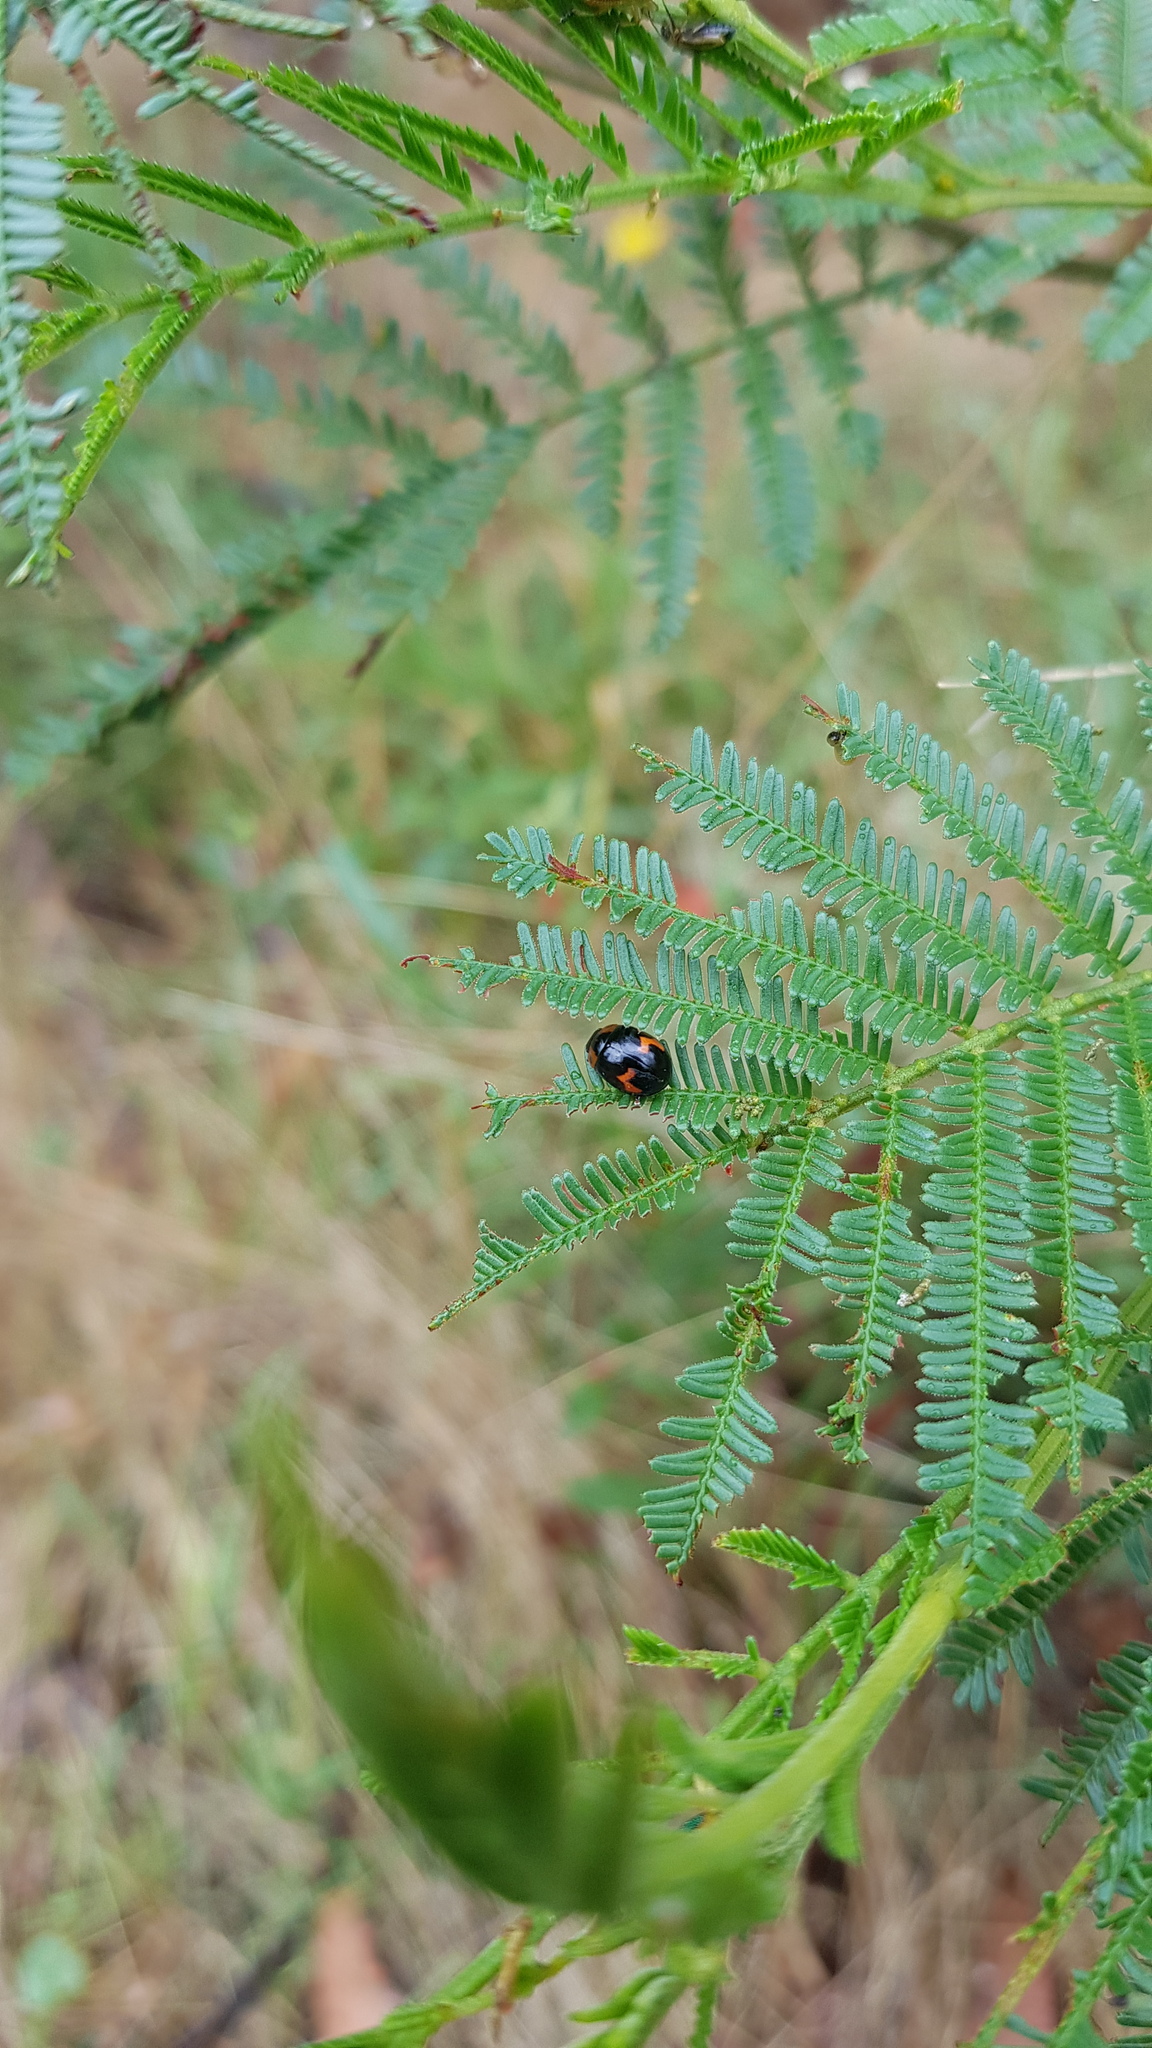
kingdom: Animalia
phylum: Arthropoda
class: Insecta
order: Coleoptera
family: Chrysomelidae
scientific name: Chrysomelidae
